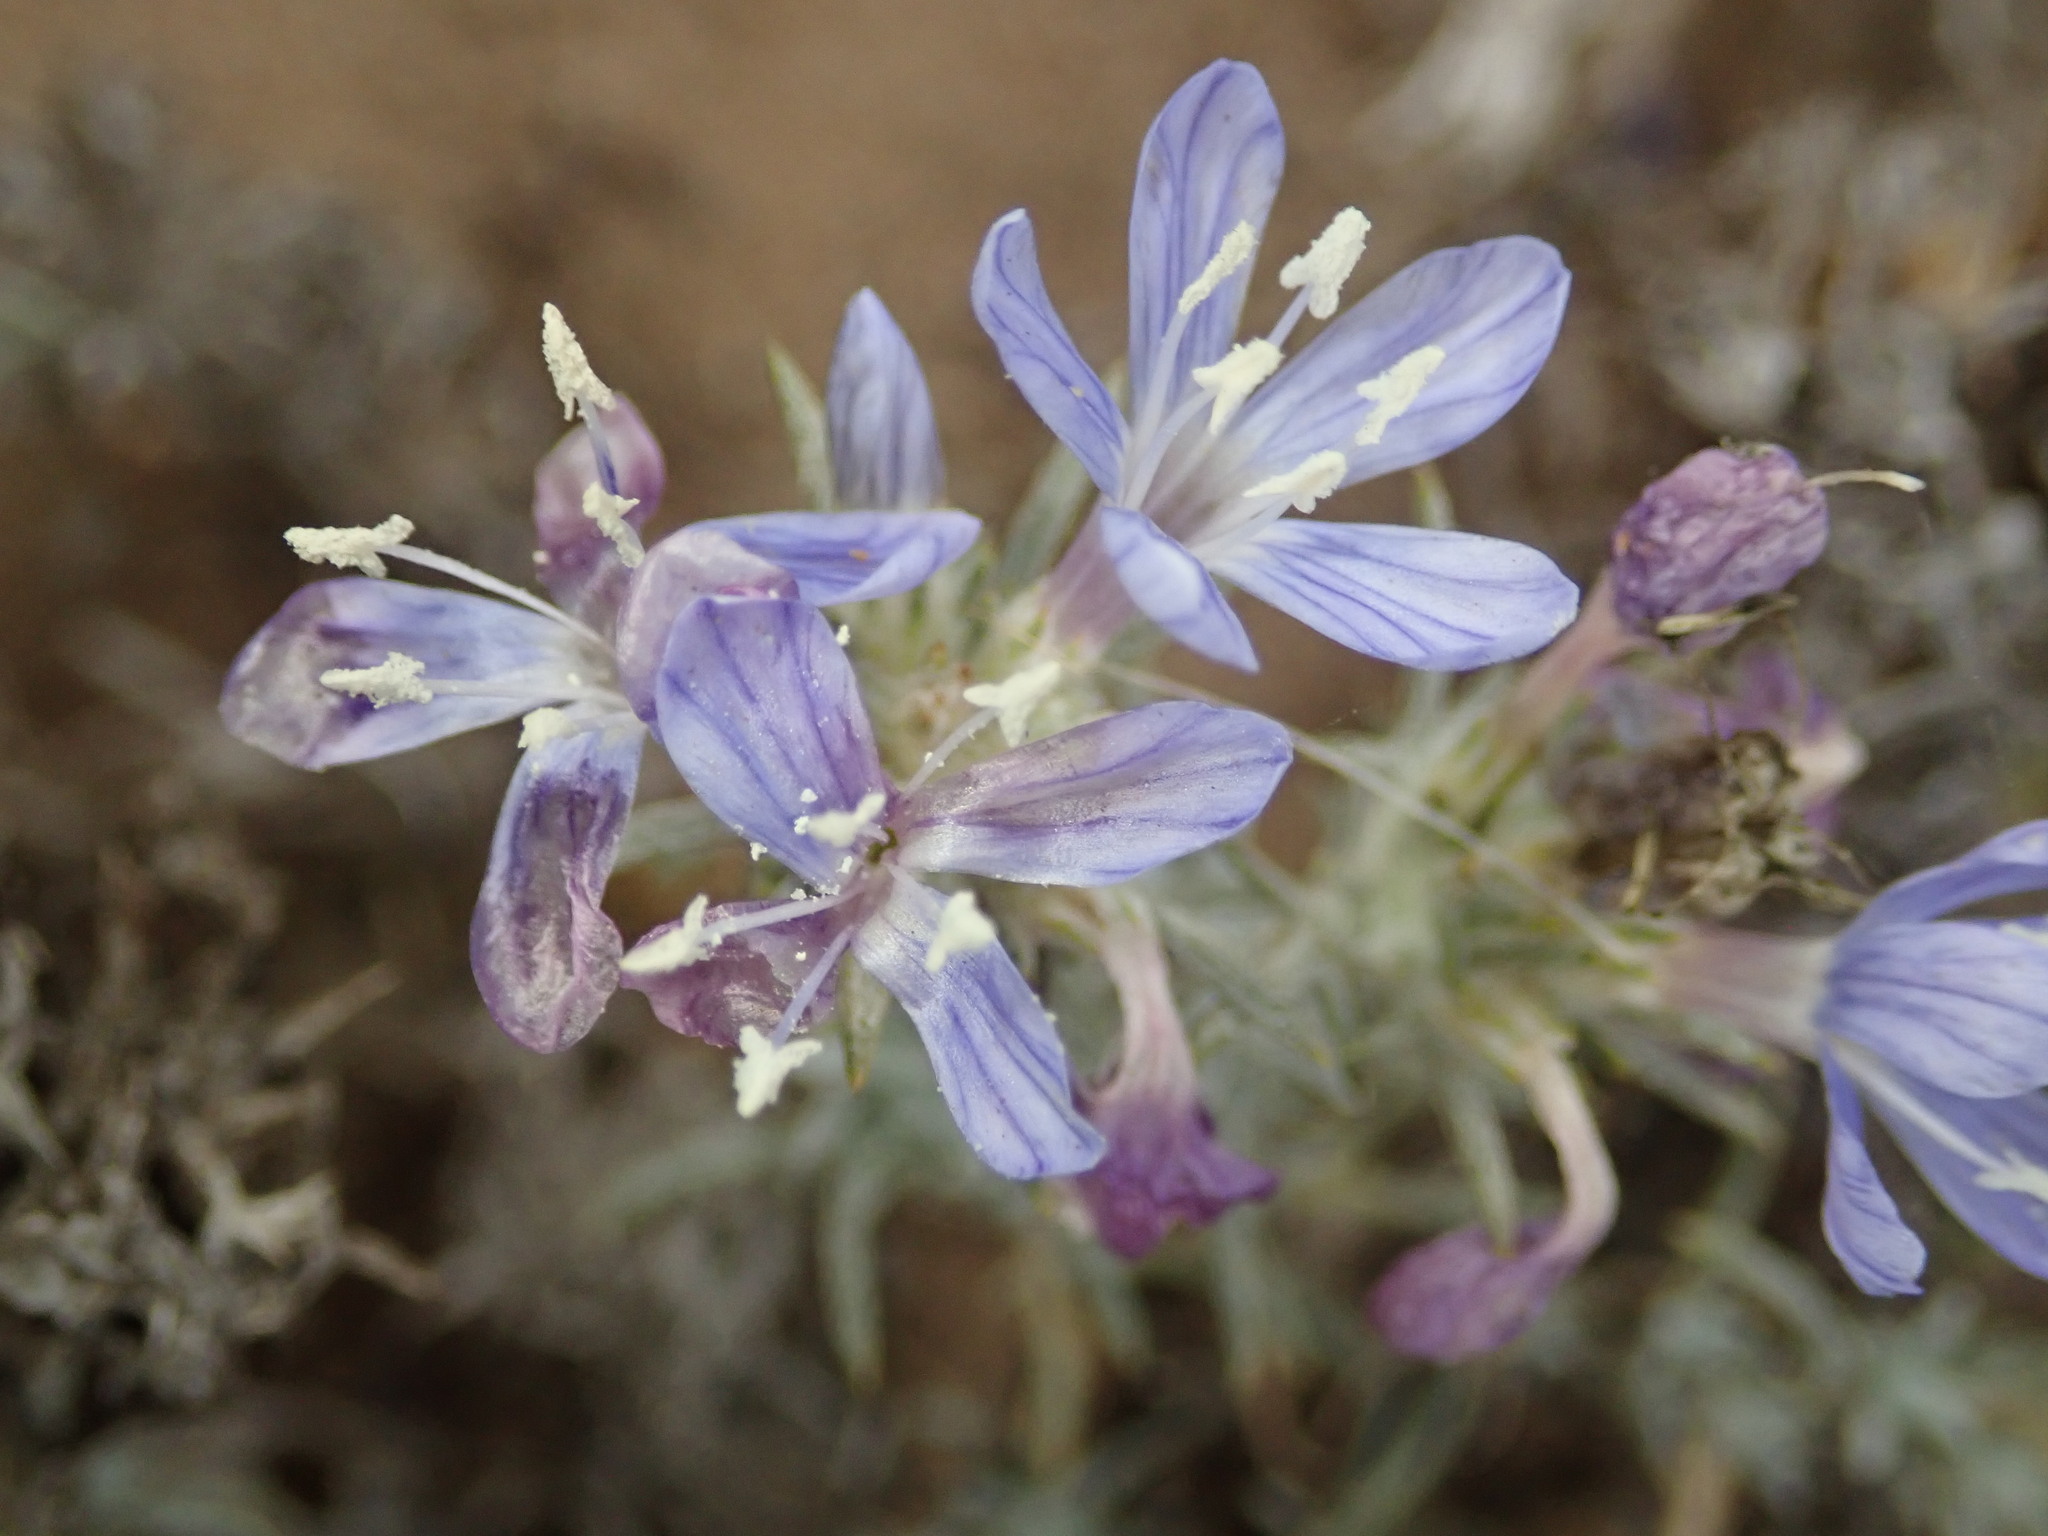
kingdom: Plantae
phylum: Tracheophyta
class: Magnoliopsida
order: Ericales
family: Polemoniaceae
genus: Eriastrum
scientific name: Eriastrum densifolium
